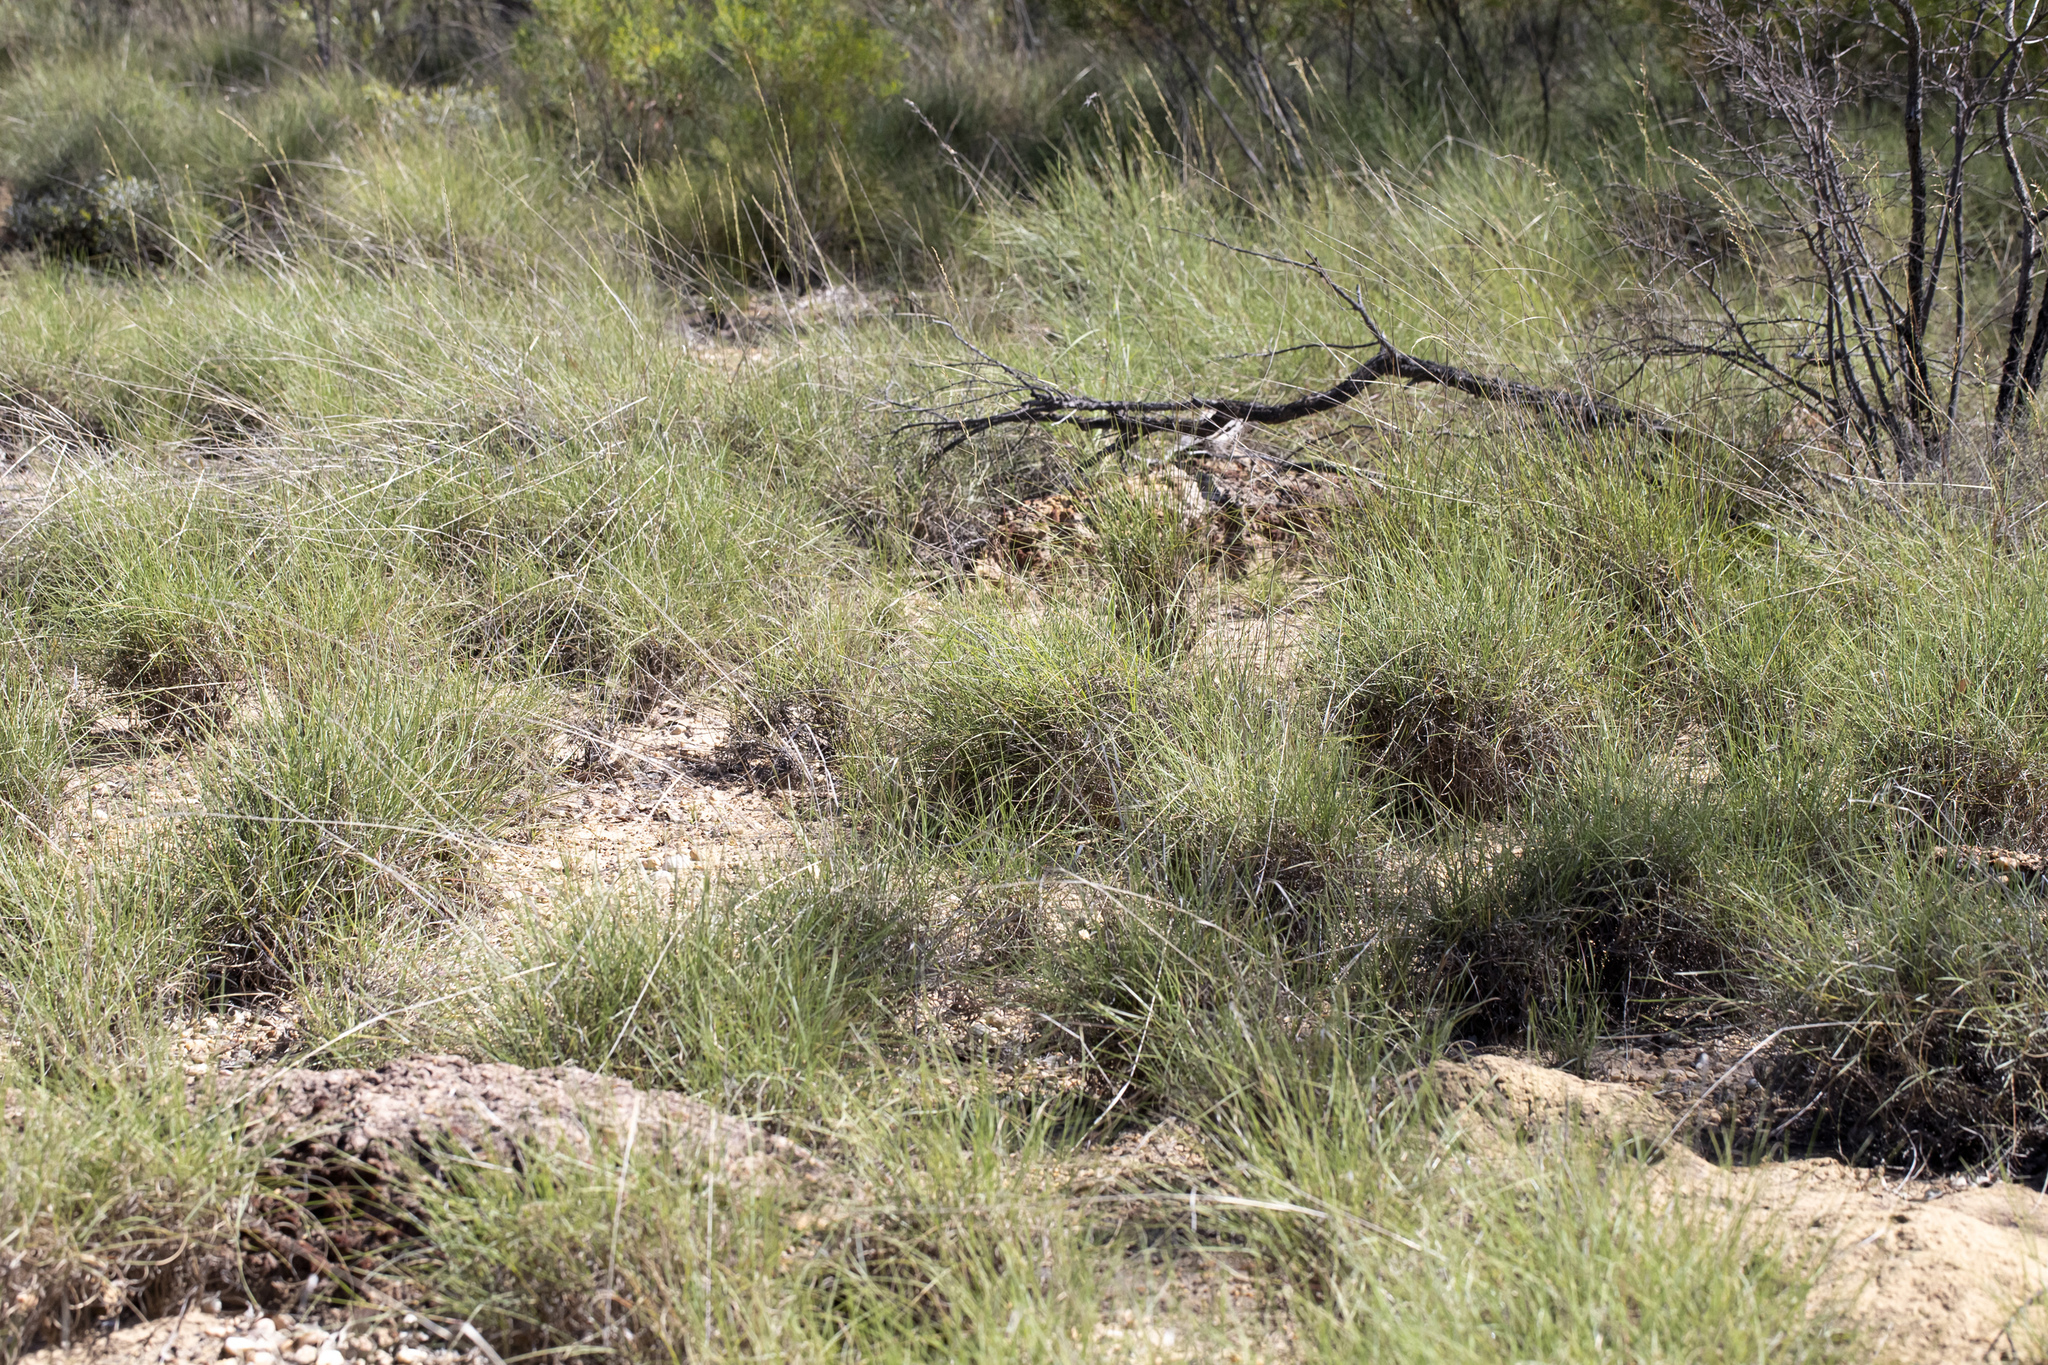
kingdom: Plantae
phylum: Tracheophyta
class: Liliopsida
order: Poales
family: Poaceae
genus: Triodia
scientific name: Triodia mitchellii
